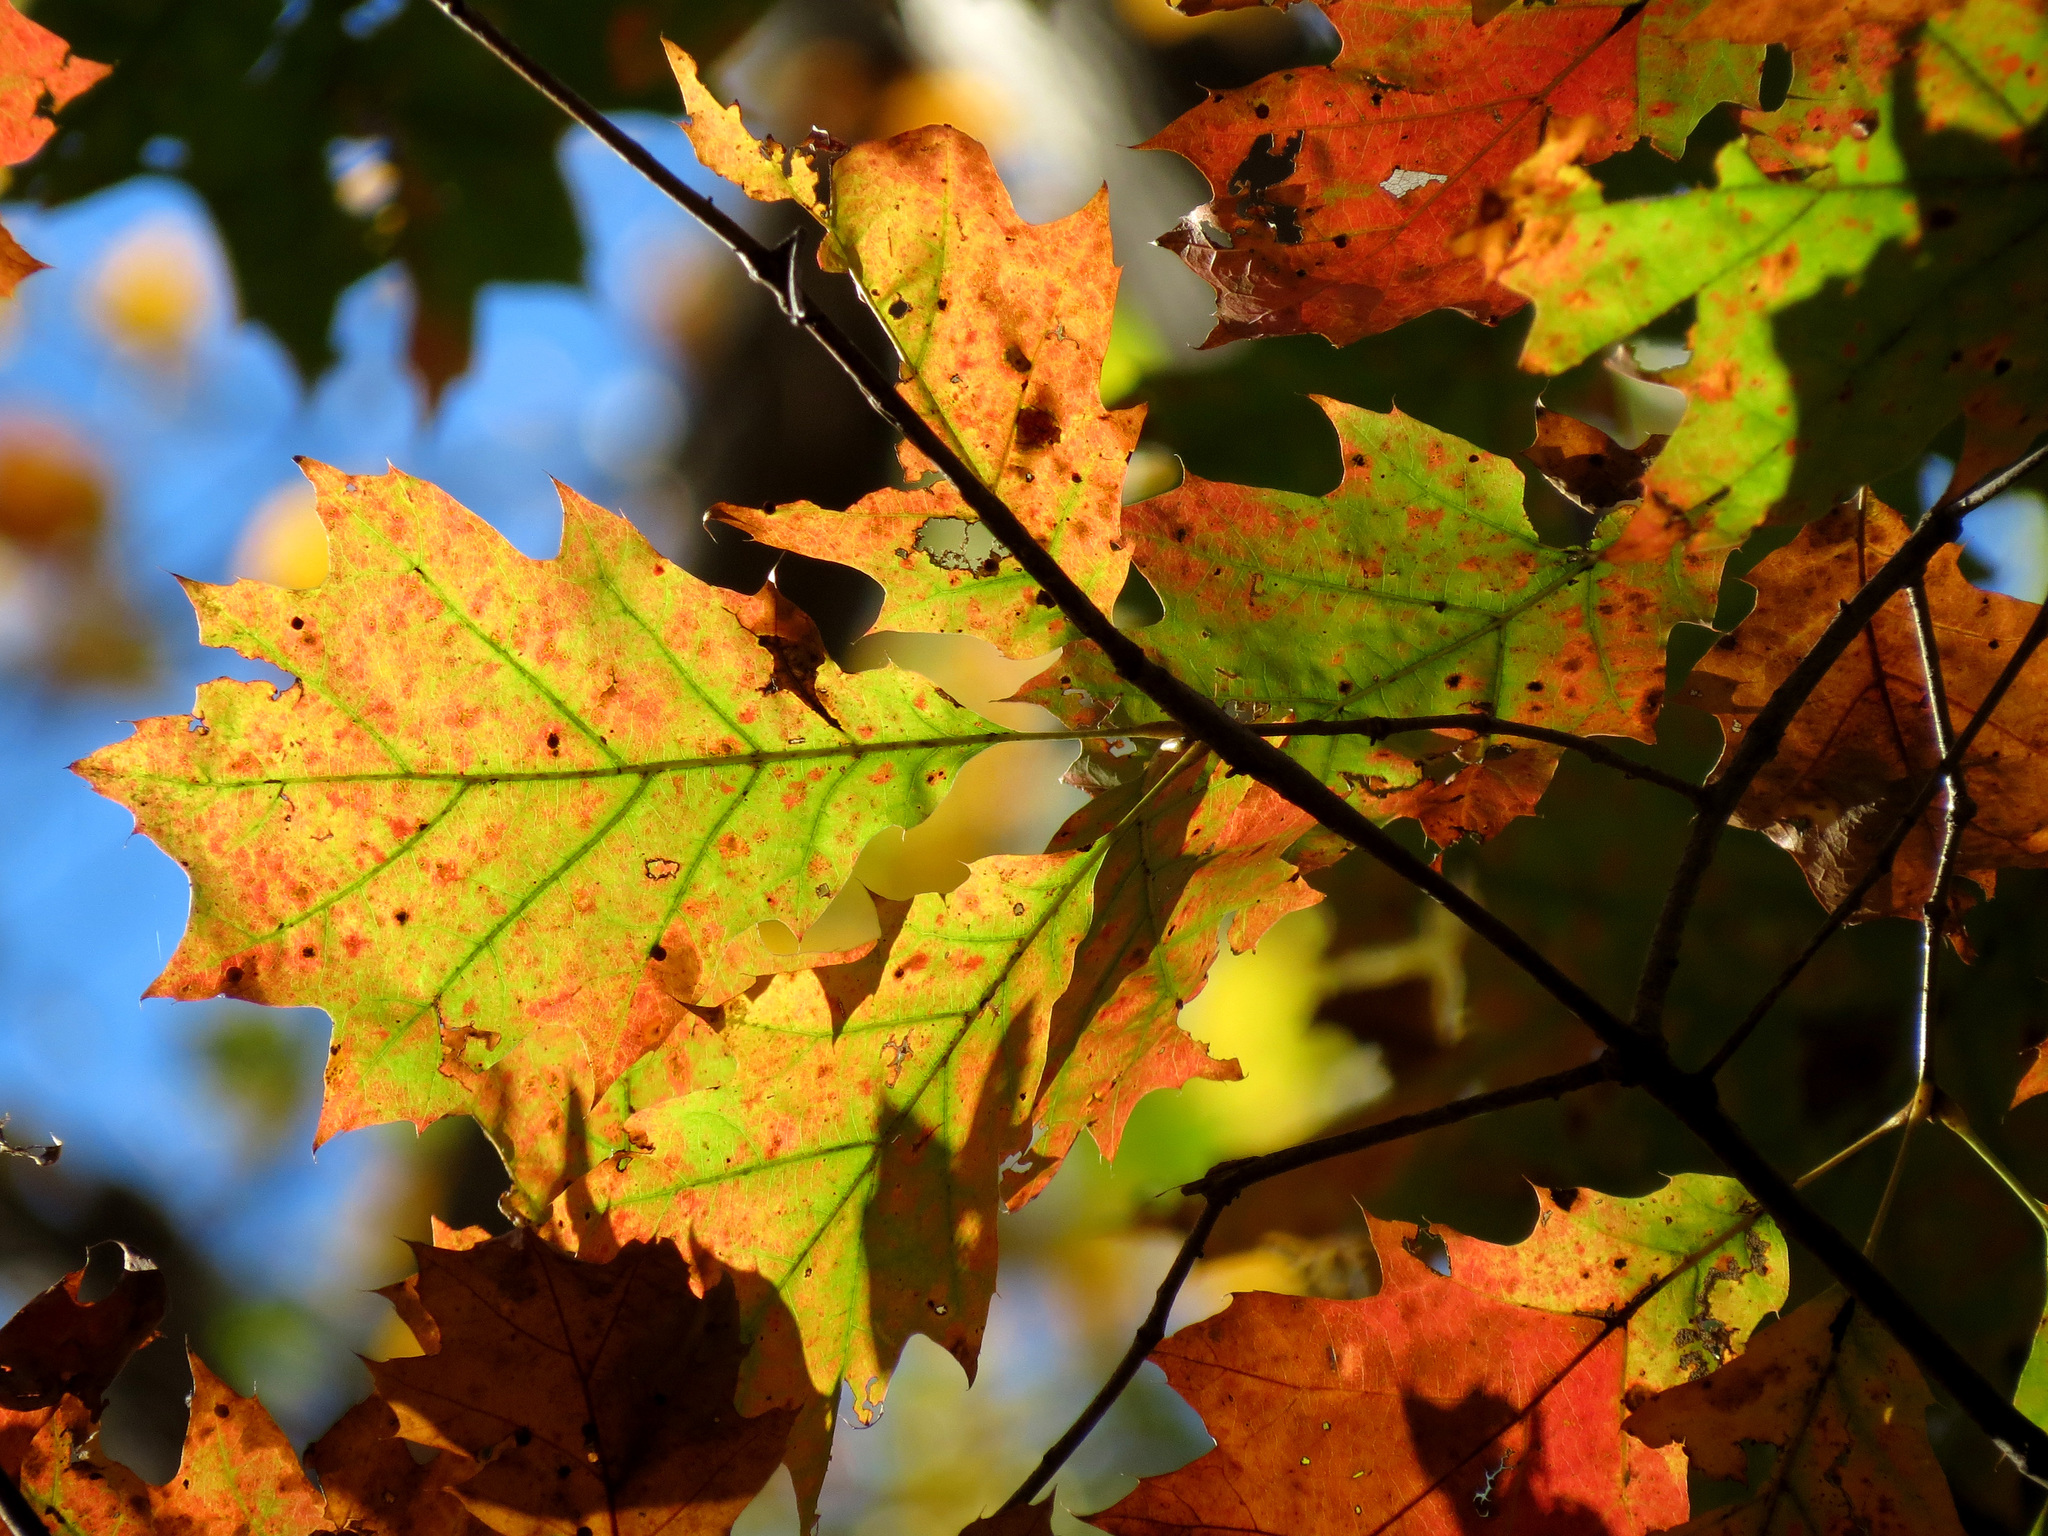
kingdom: Plantae
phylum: Tracheophyta
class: Magnoliopsida
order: Fagales
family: Fagaceae
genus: Quercus
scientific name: Quercus rubra
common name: Red oak
